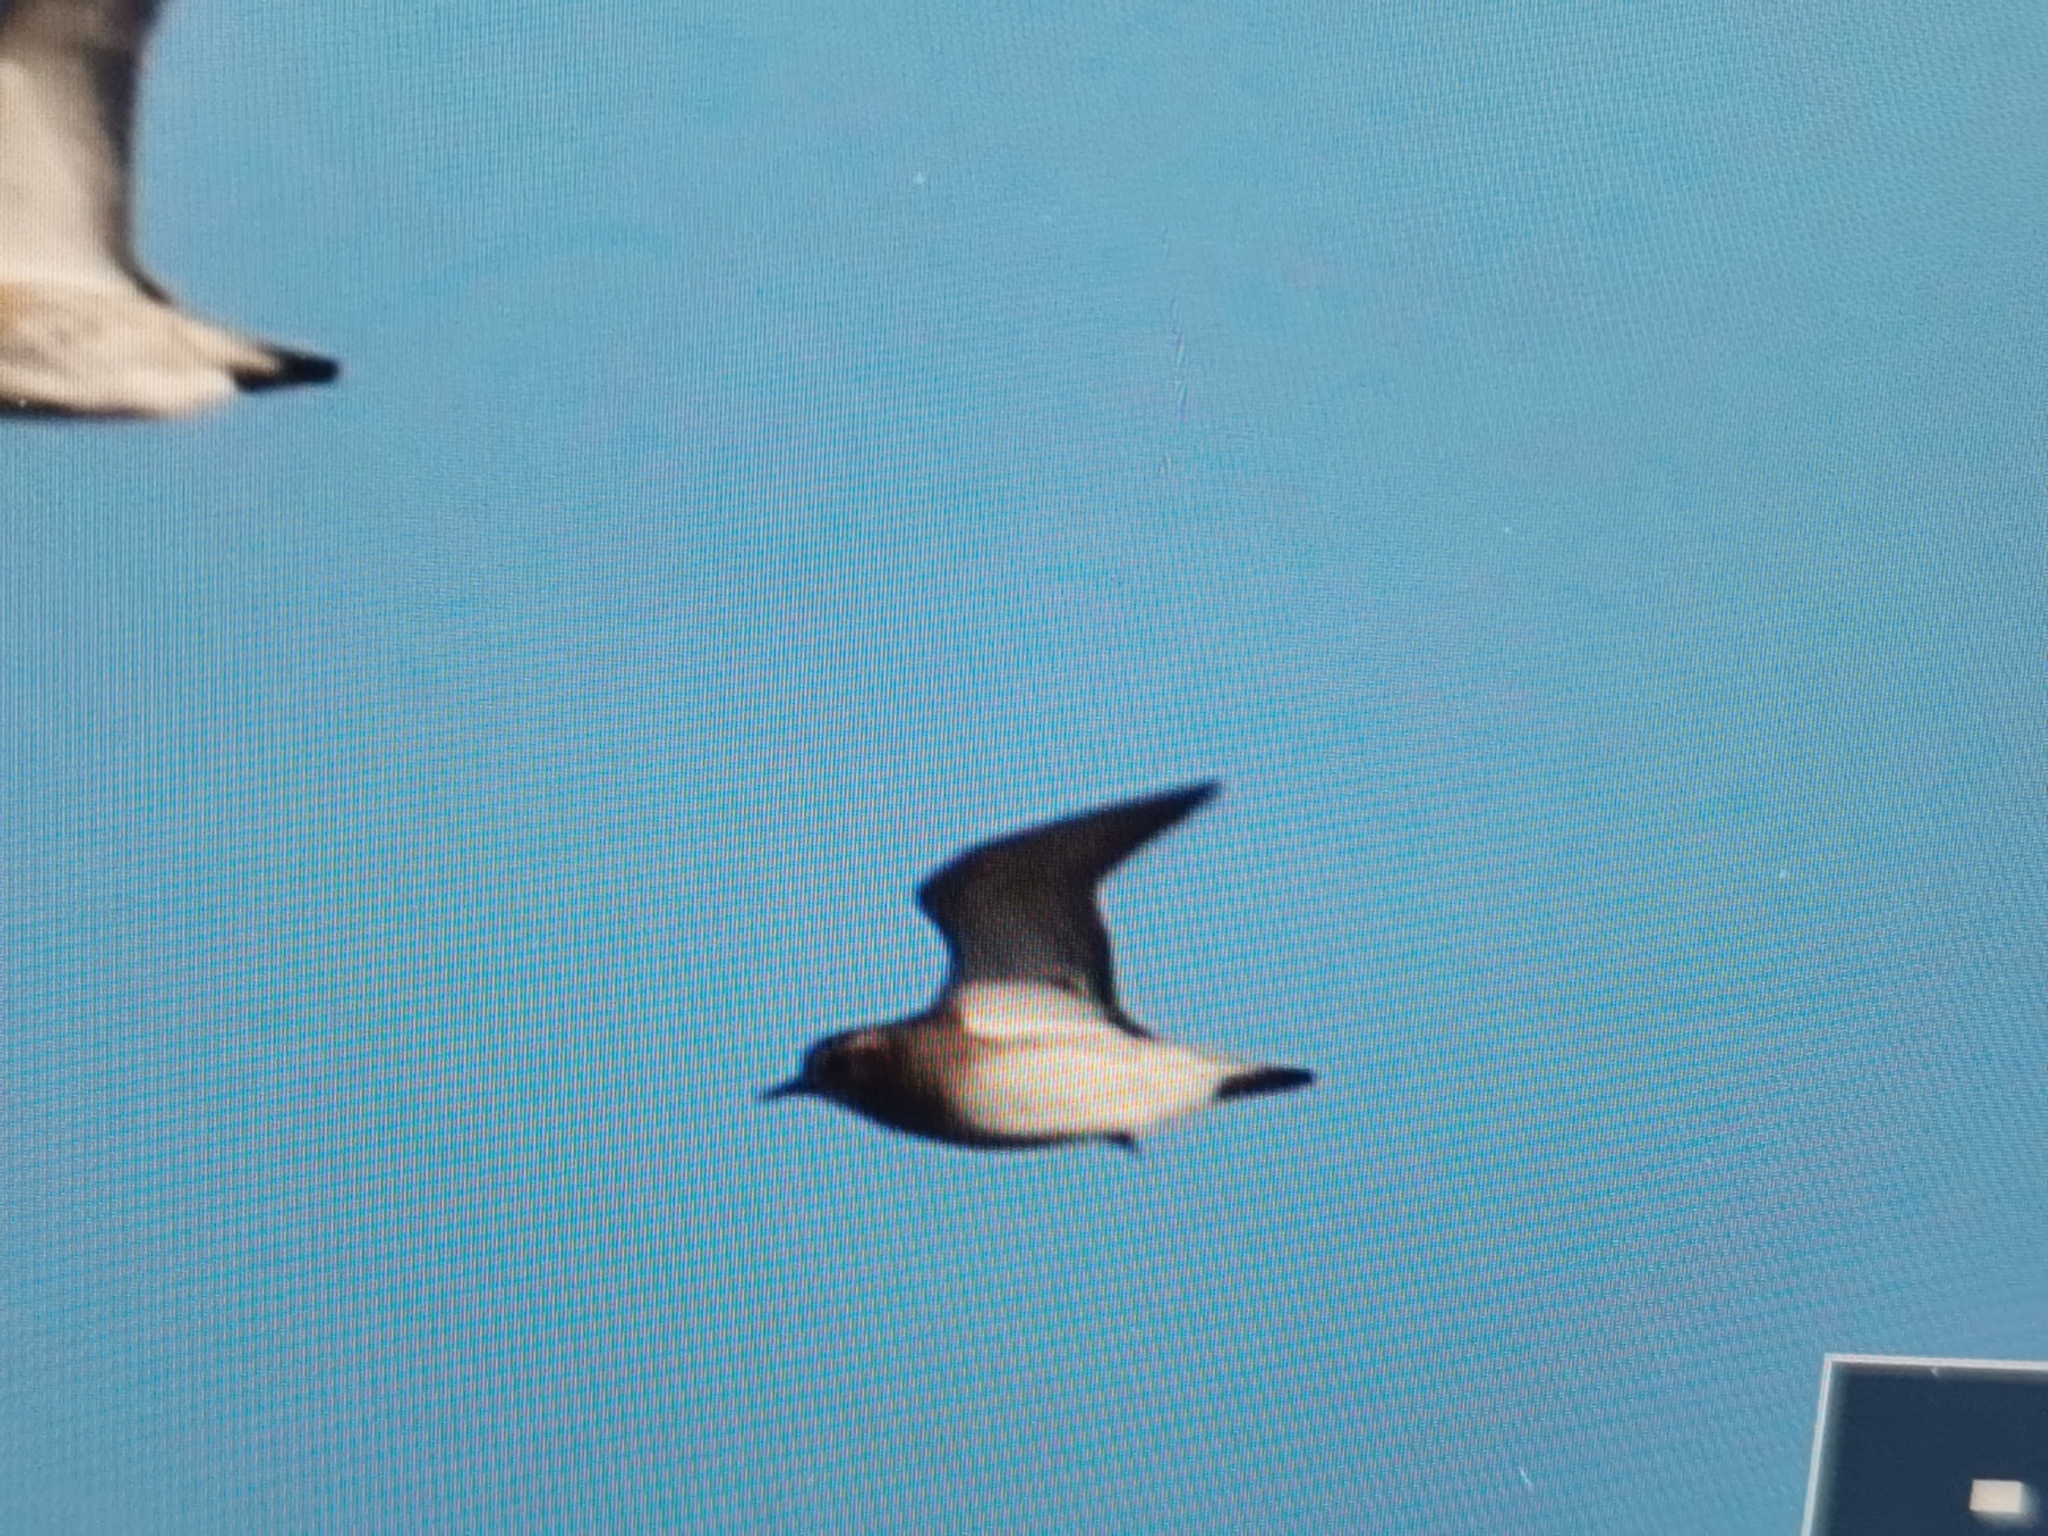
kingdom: Animalia
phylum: Chordata
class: Aves
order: Charadriiformes
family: Charadriidae
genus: Pluvialis
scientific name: Pluvialis apricaria
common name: European golden plover
